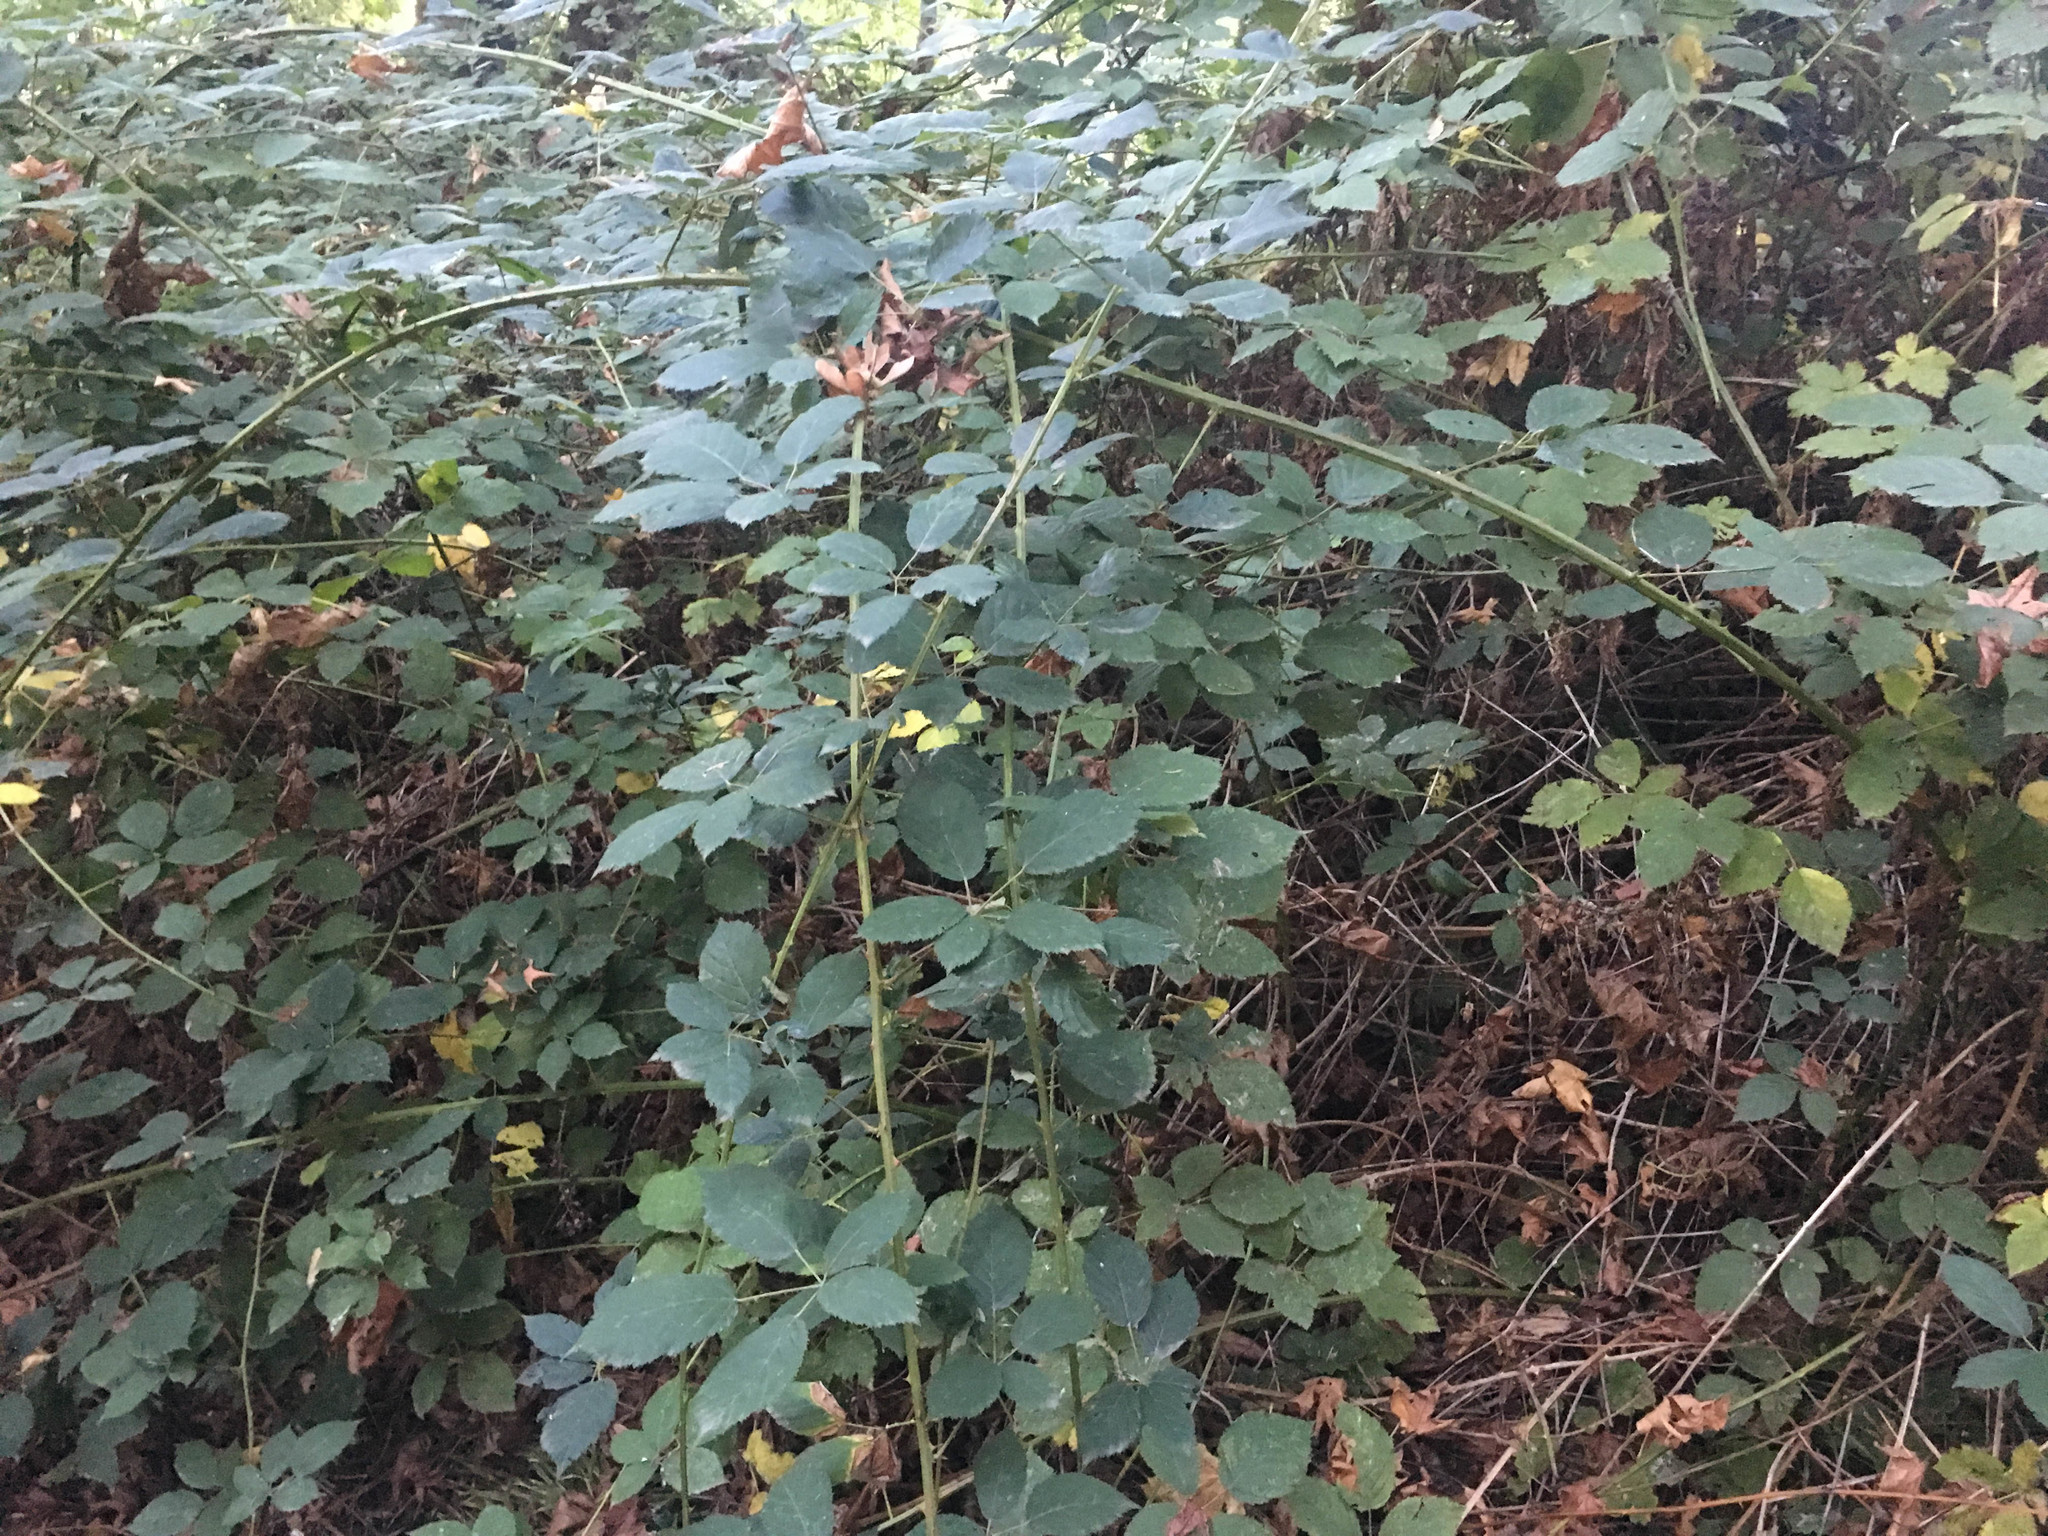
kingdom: Plantae
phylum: Tracheophyta
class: Magnoliopsida
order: Rosales
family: Rosaceae
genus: Rubus
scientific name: Rubus bifrons
